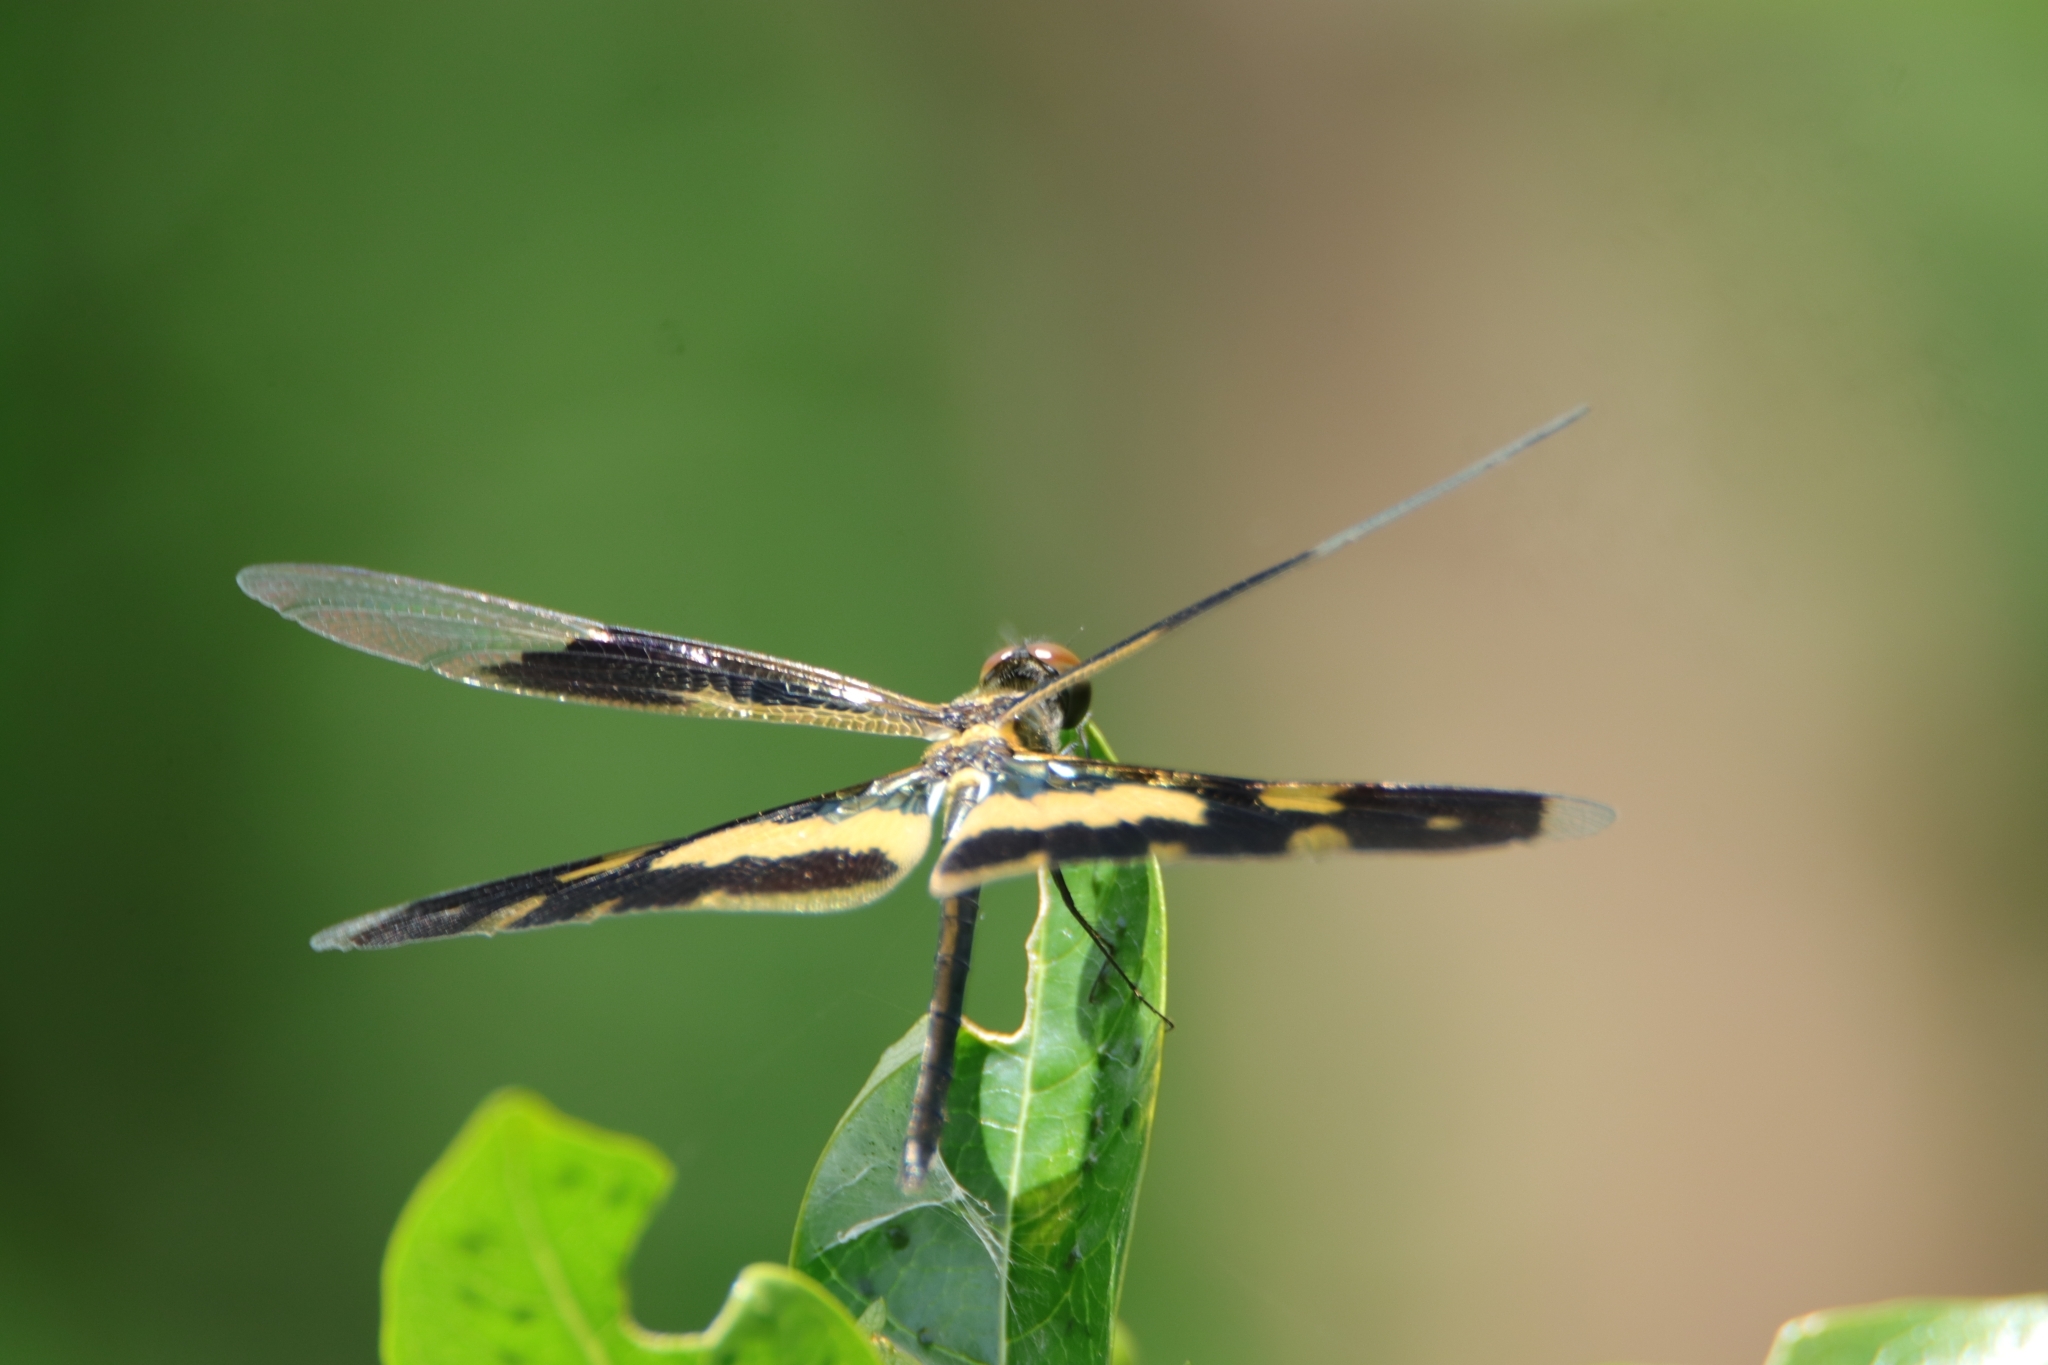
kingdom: Animalia
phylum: Arthropoda
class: Insecta
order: Odonata
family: Libellulidae
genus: Rhyothemis
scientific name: Rhyothemis variegata
